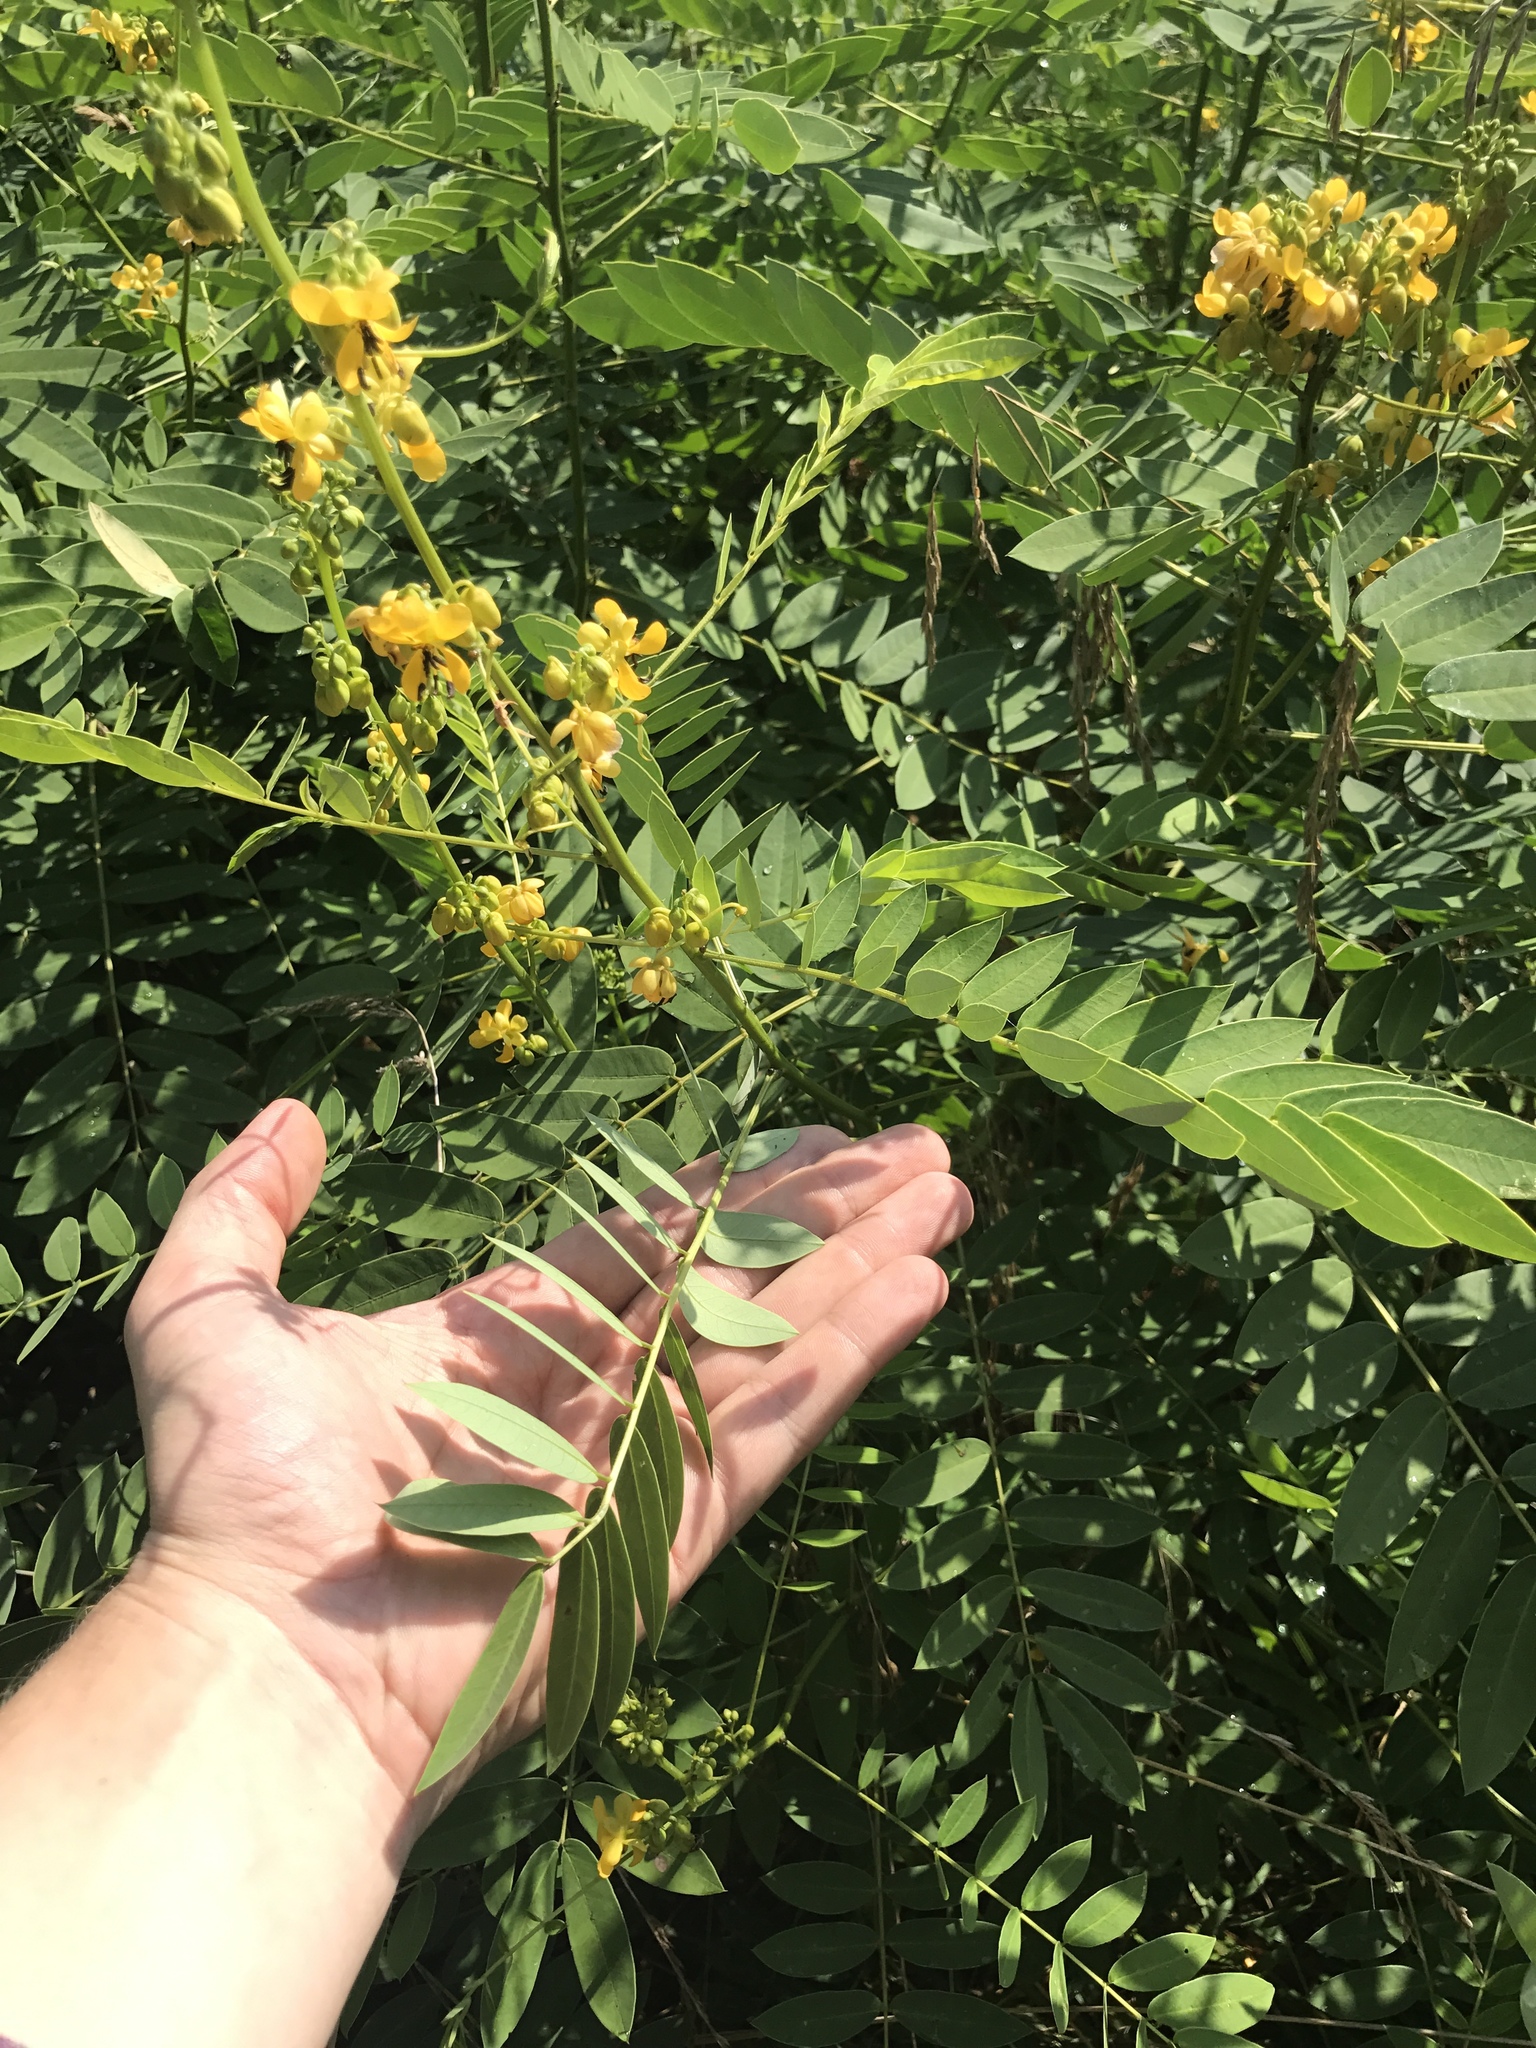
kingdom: Plantae
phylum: Tracheophyta
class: Magnoliopsida
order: Fabales
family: Fabaceae
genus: Senna
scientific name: Senna marilandica
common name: American senna
